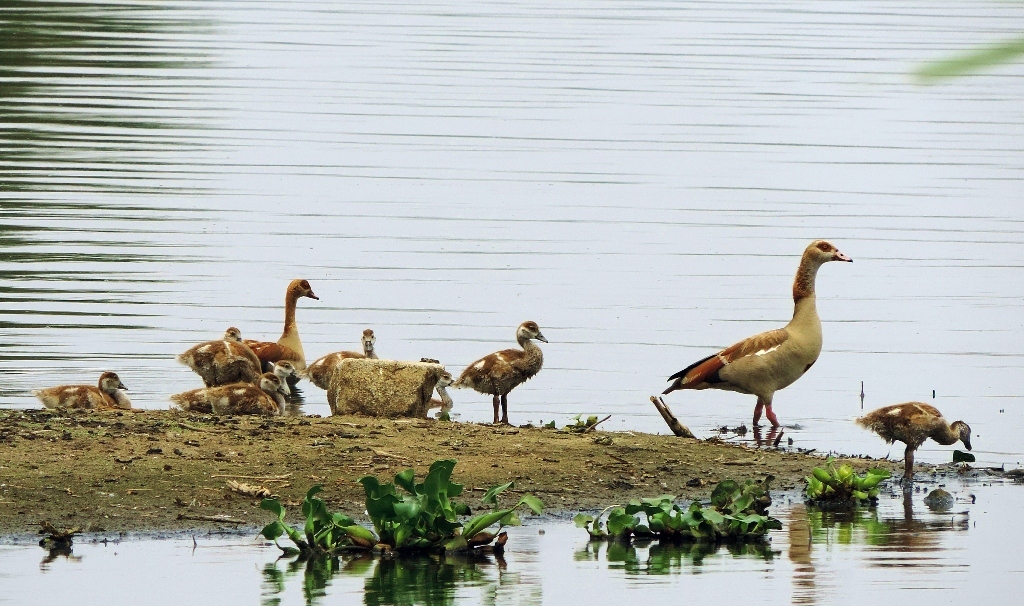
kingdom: Animalia
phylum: Chordata
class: Aves
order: Anseriformes
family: Anatidae
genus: Alopochen
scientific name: Alopochen aegyptiaca
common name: Egyptian goose
